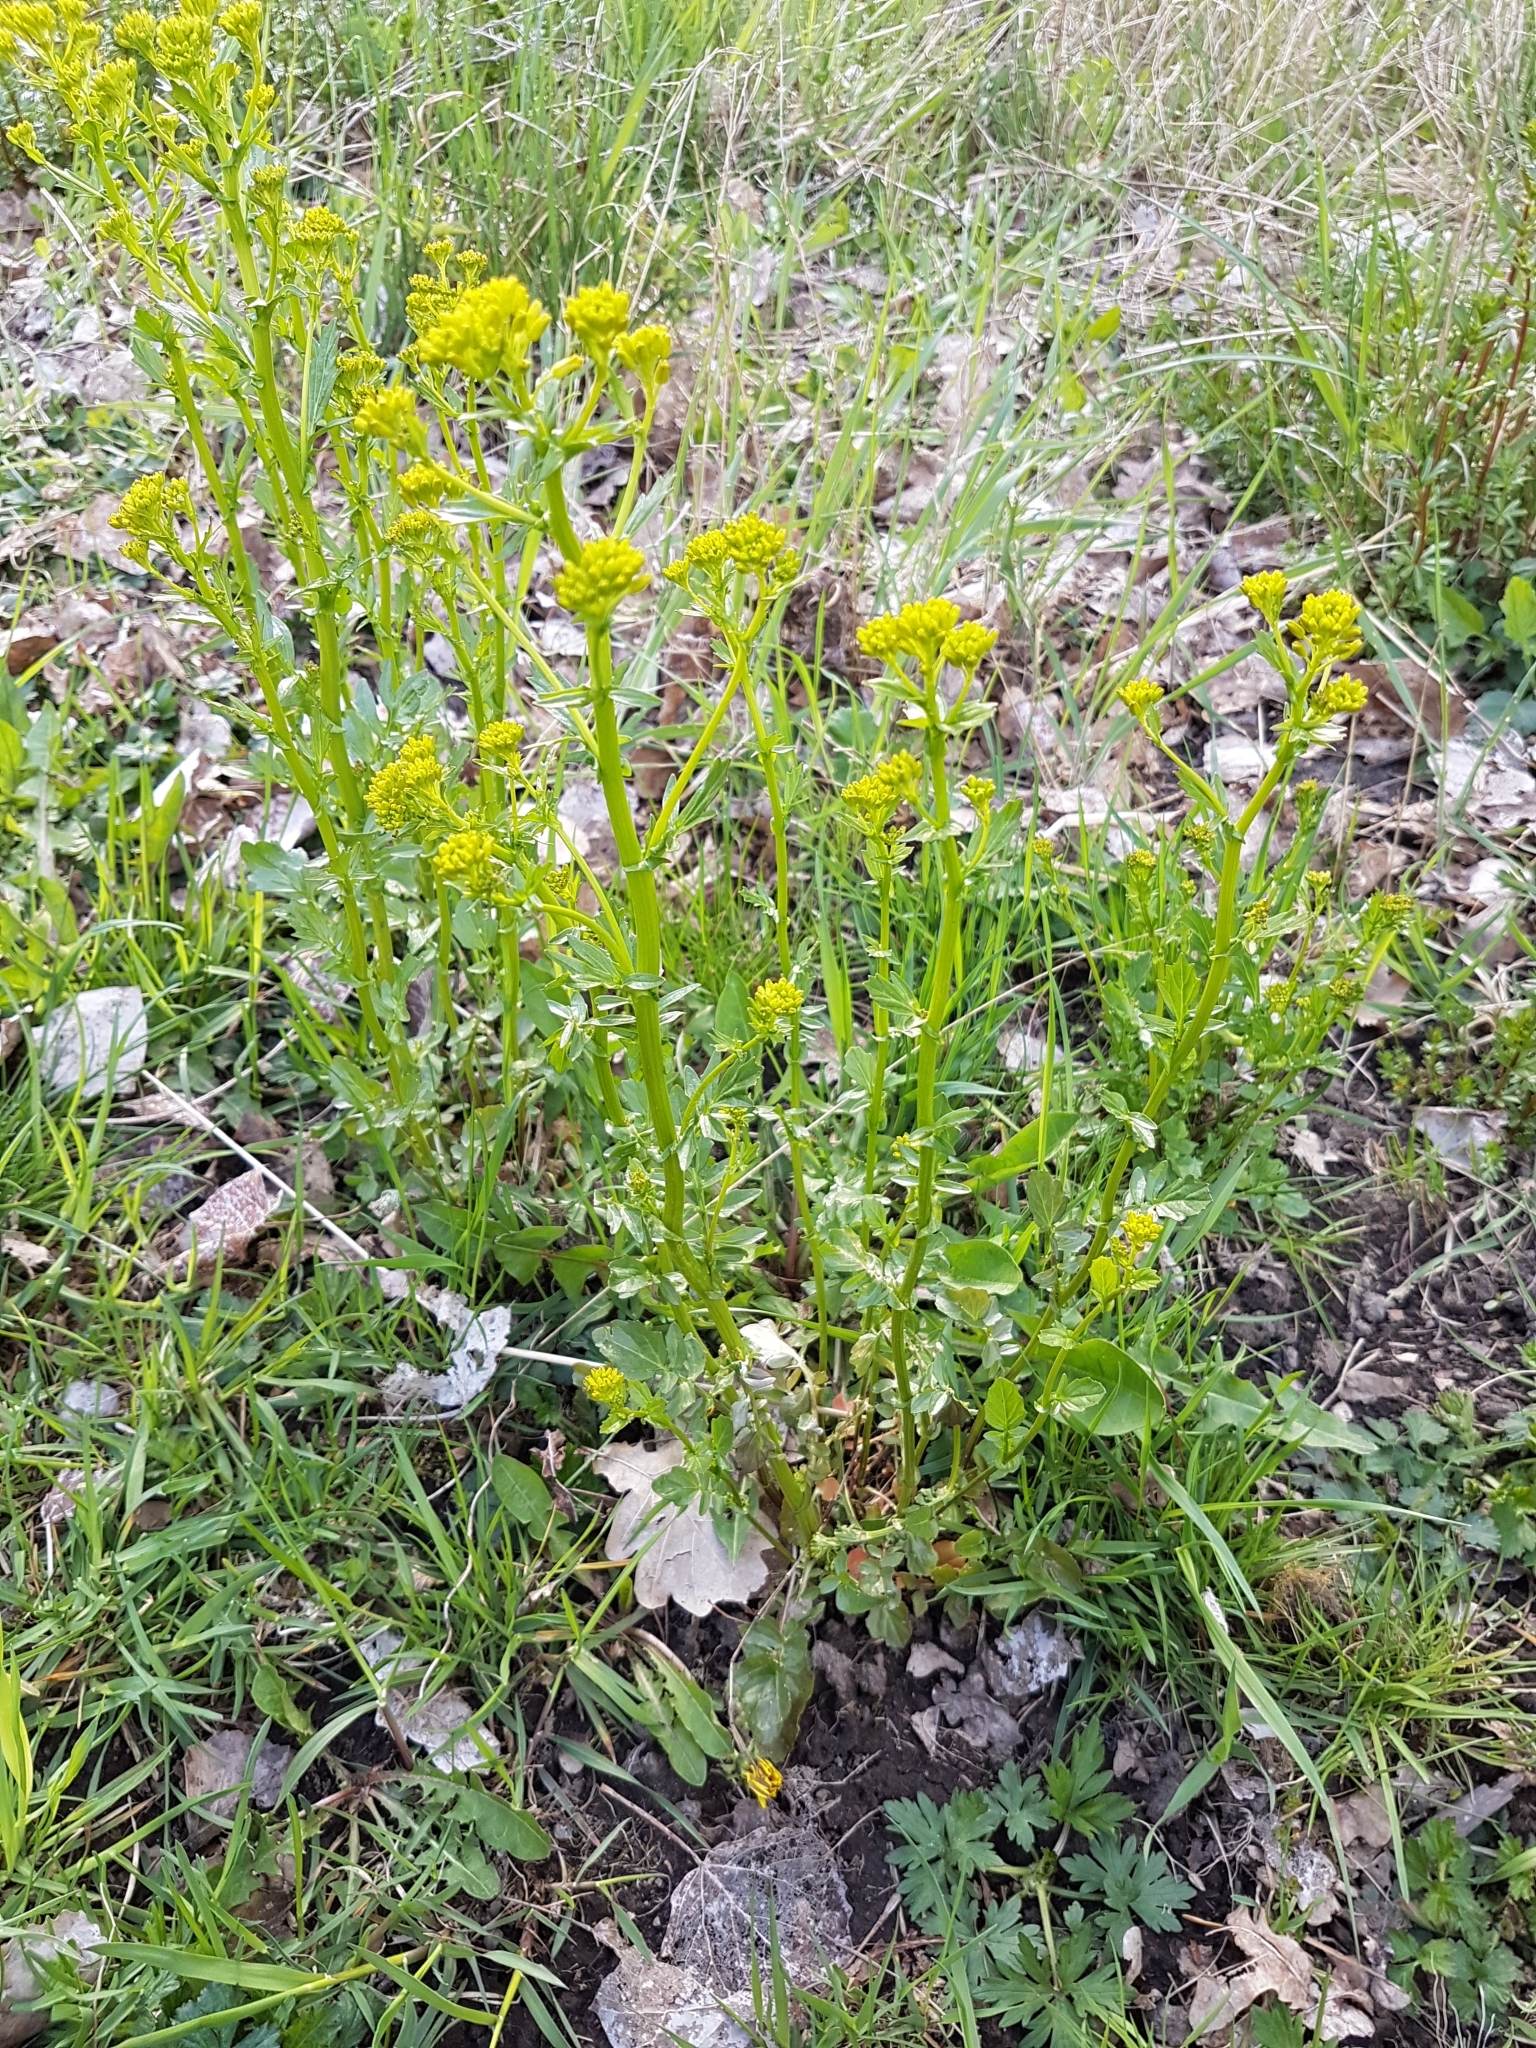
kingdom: Plantae
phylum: Tracheophyta
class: Magnoliopsida
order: Brassicales
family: Brassicaceae
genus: Barbarea
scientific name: Barbarea vulgaris
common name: Cressy-greens
